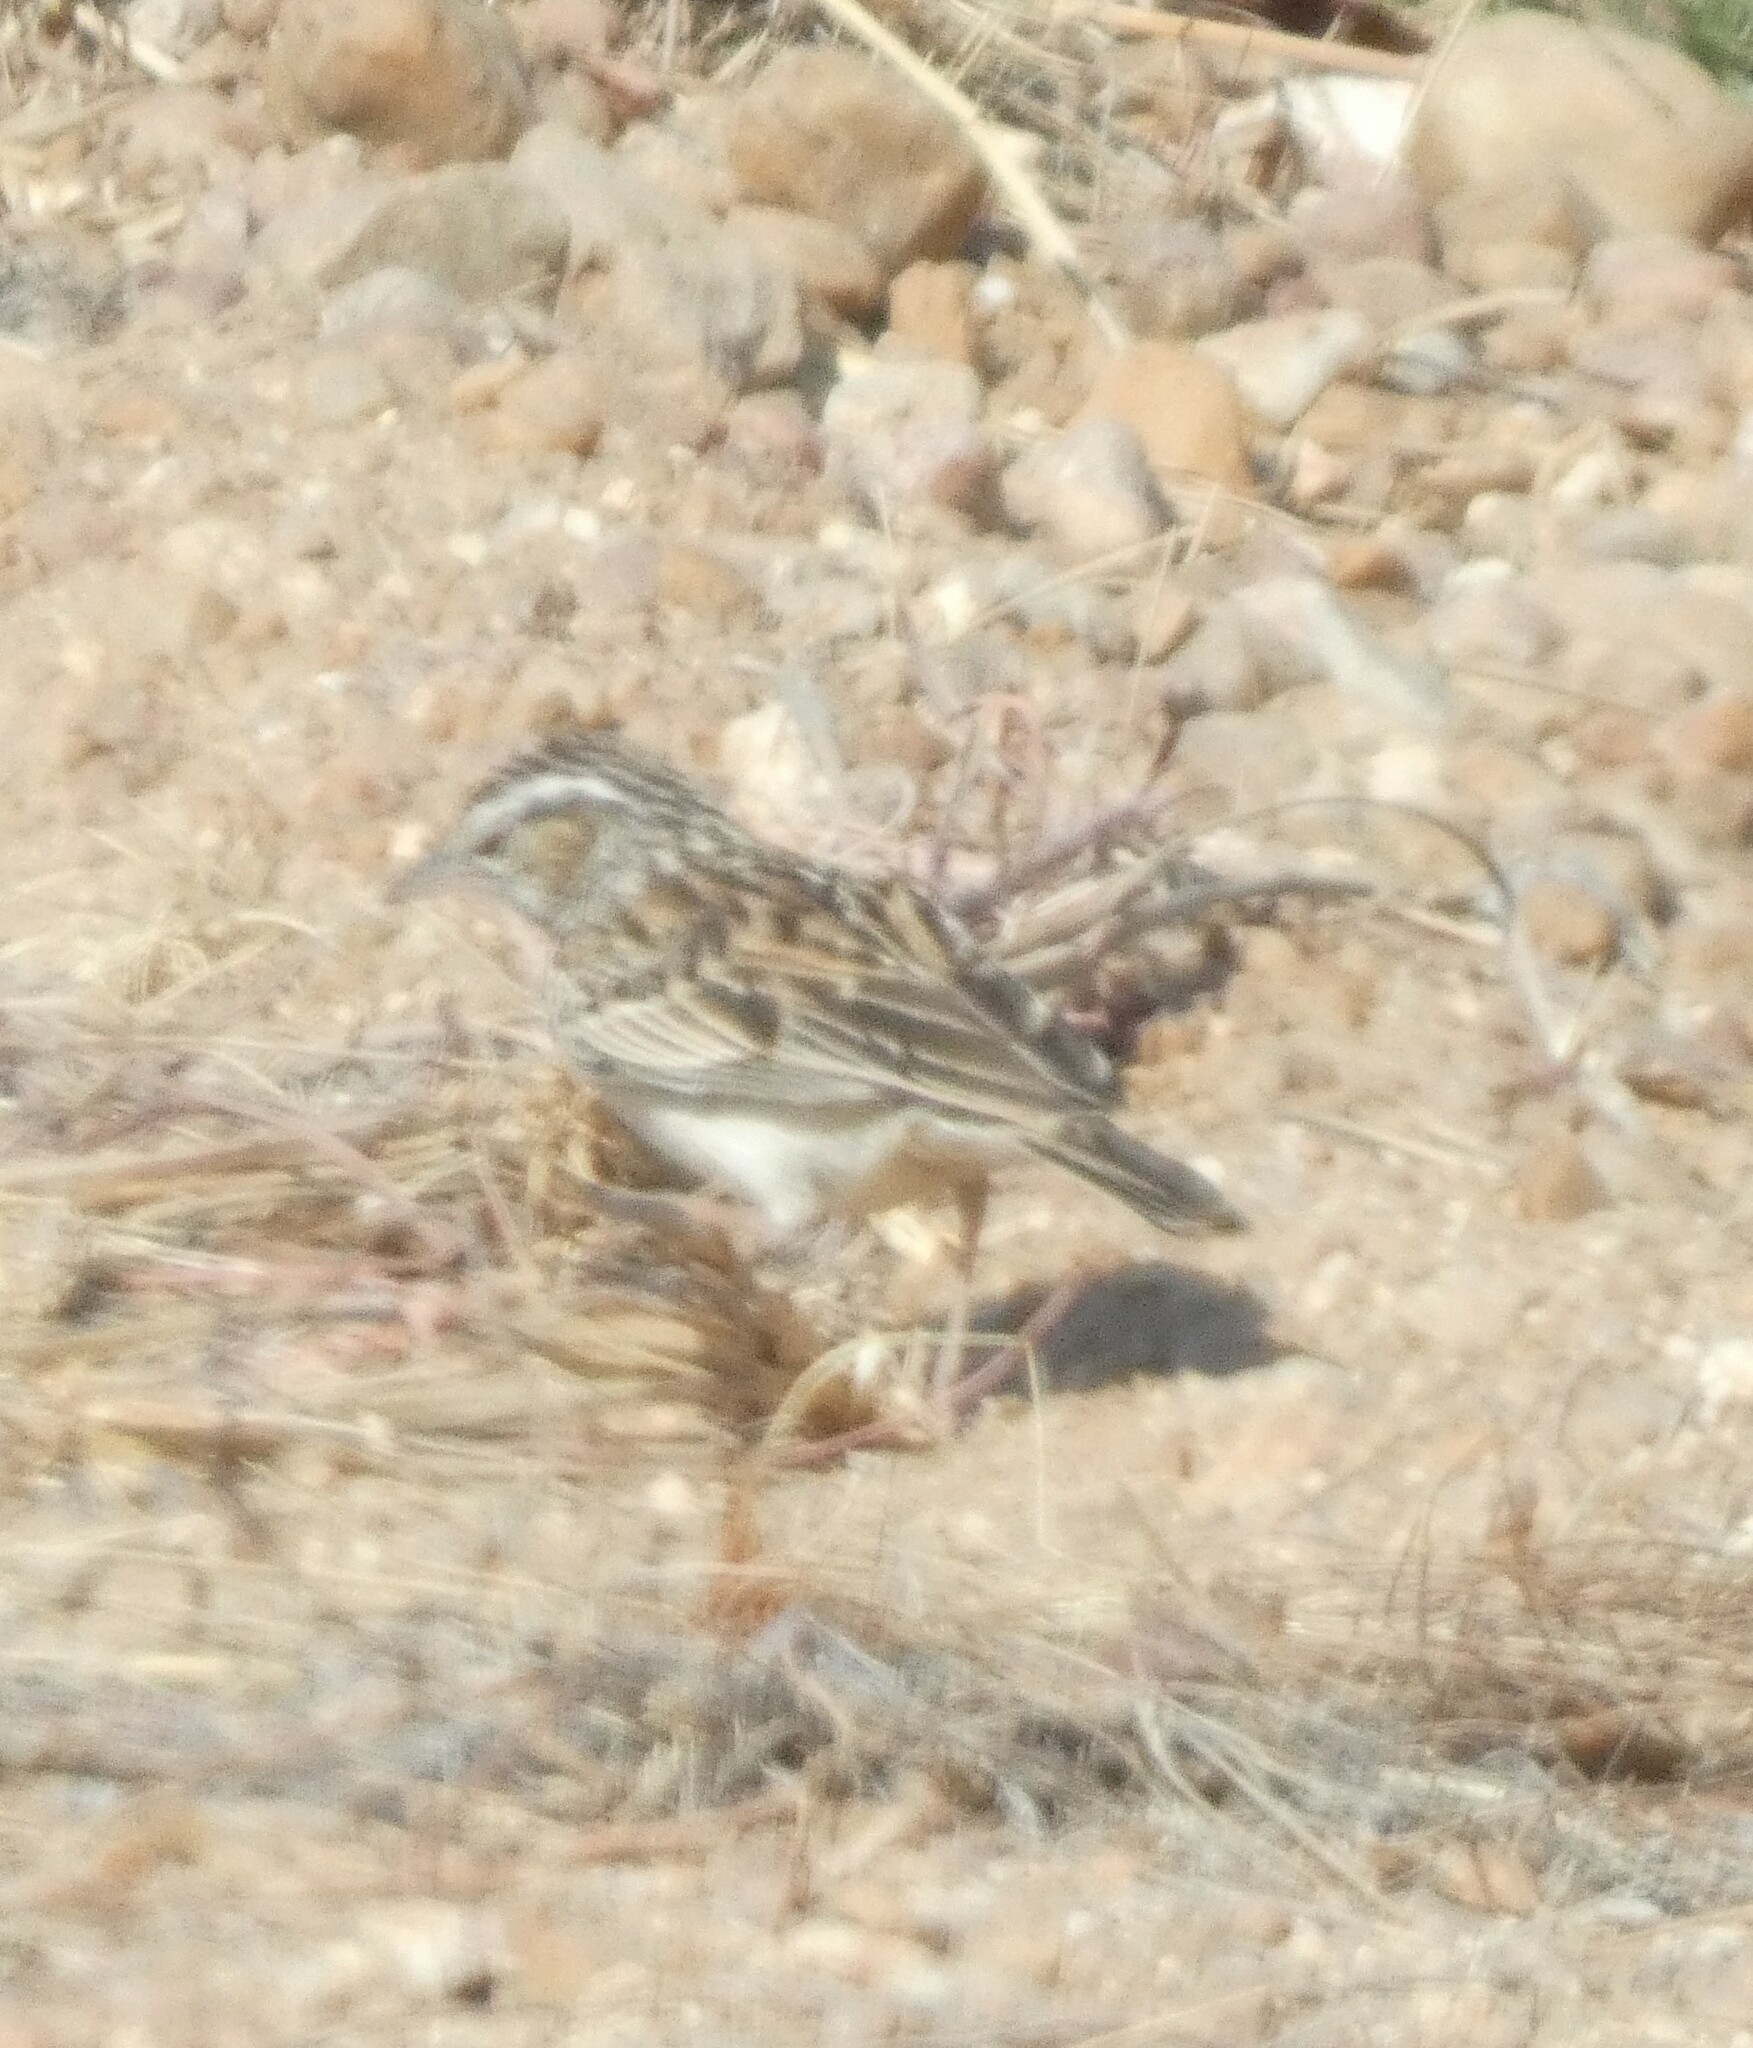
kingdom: Animalia
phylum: Chordata
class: Aves
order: Passeriformes
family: Alaudidae
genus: Calendulauda
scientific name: Calendulauda sabota
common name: Sabota lark
